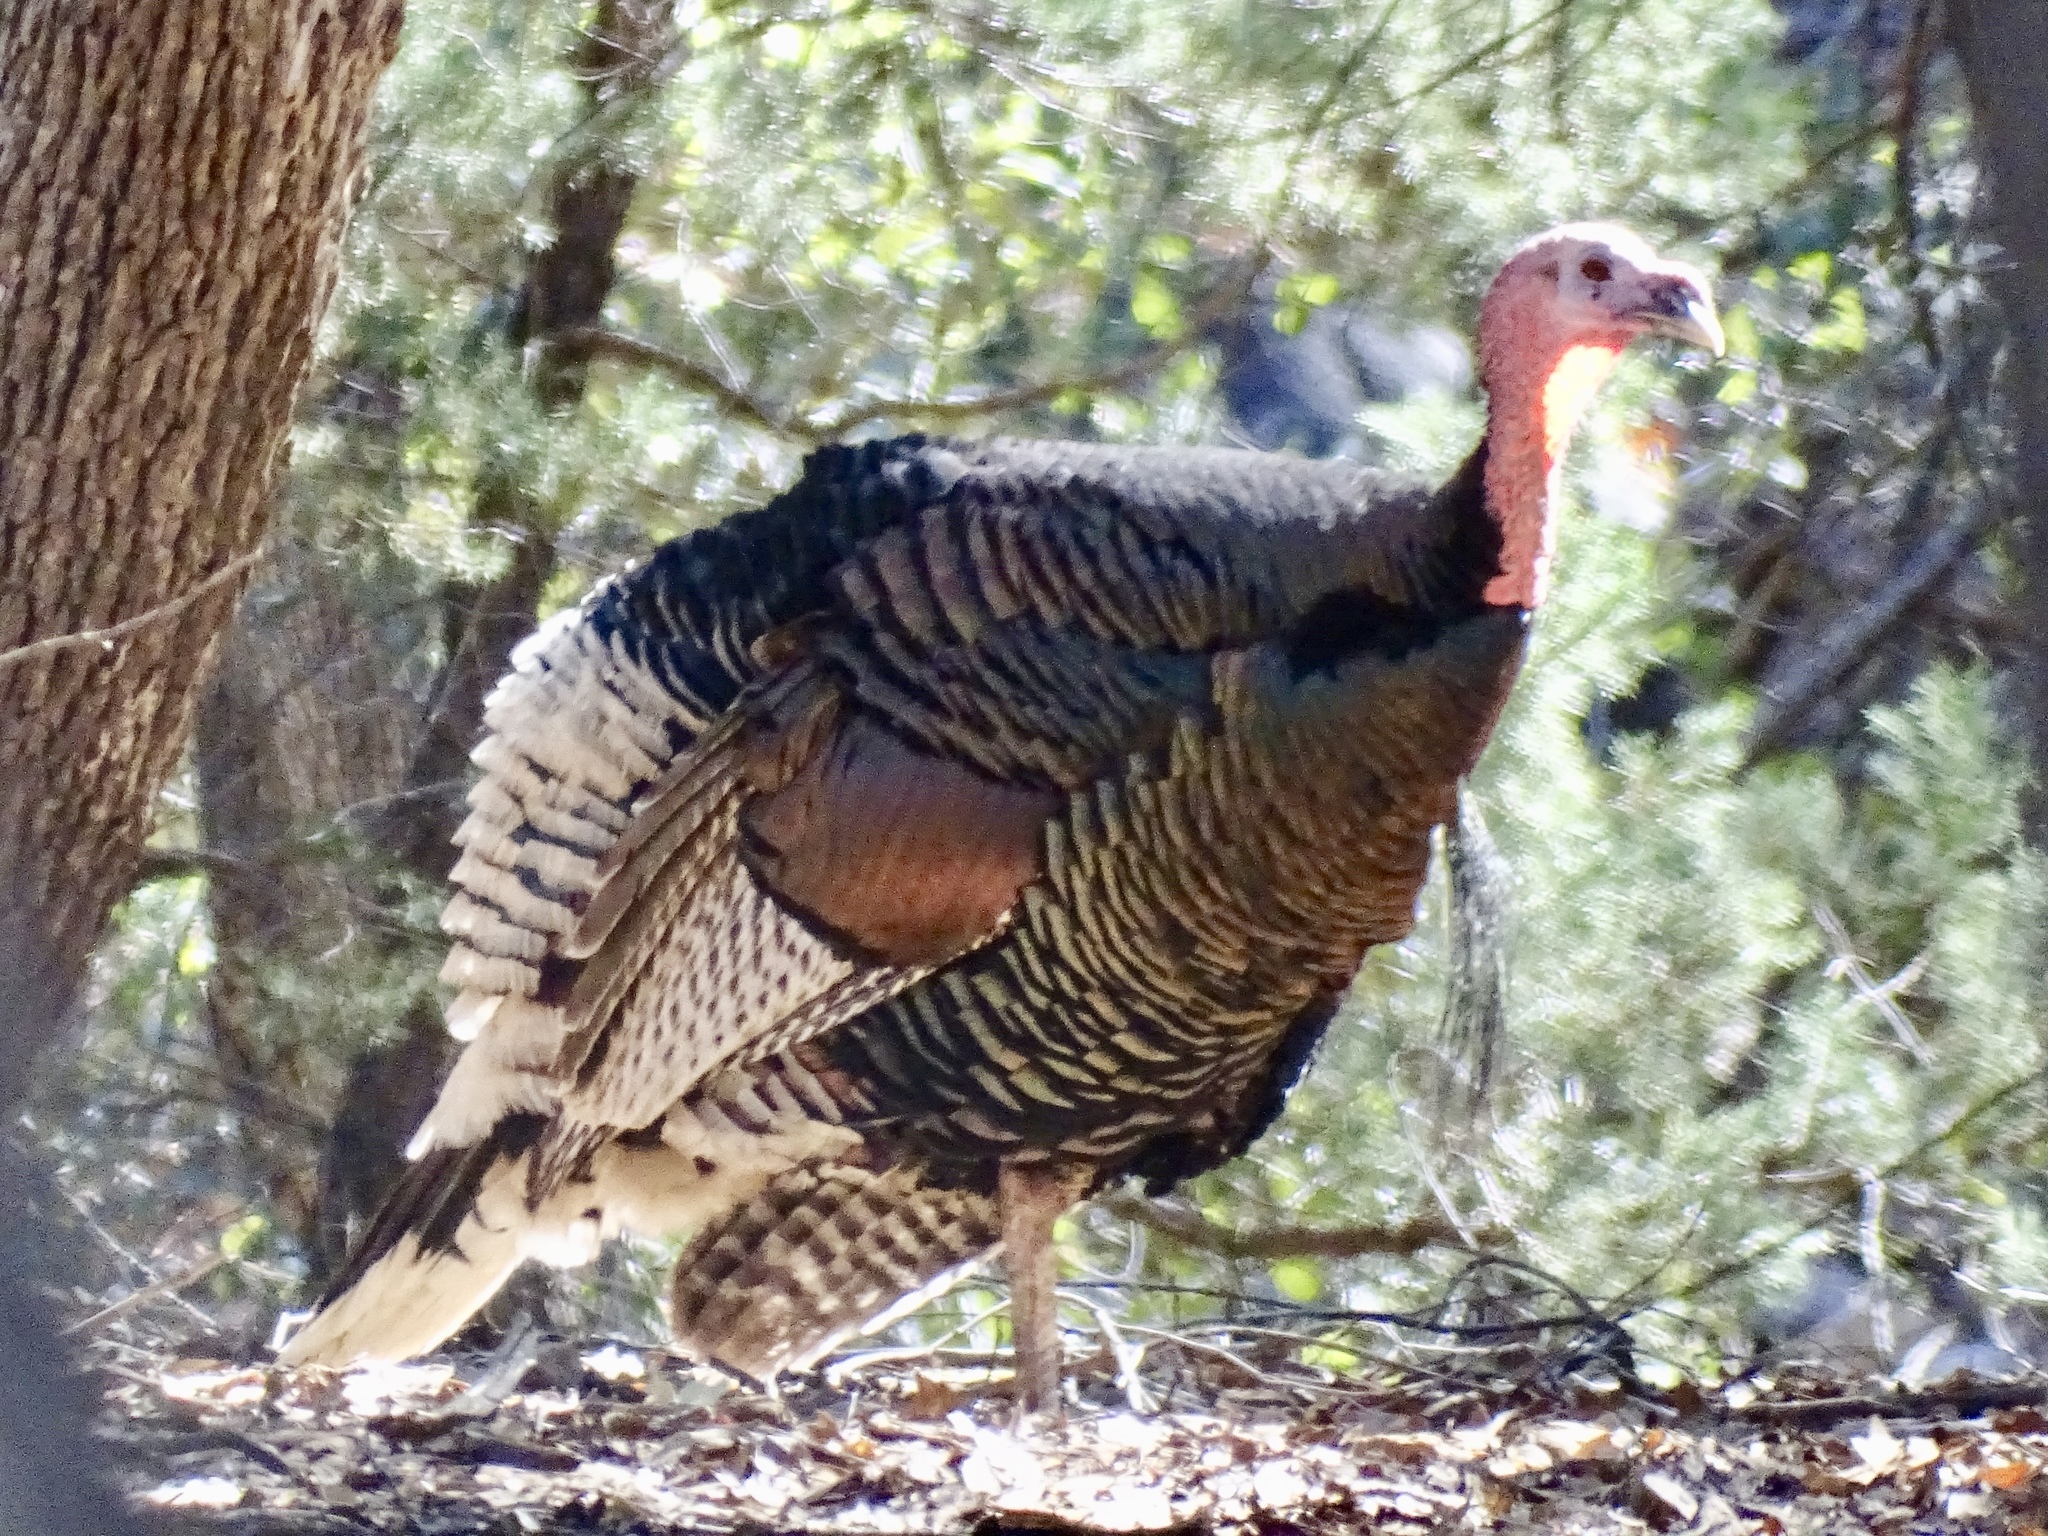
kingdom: Animalia
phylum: Chordata
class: Aves
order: Galliformes
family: Phasianidae
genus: Meleagris
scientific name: Meleagris gallopavo
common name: Wild turkey
